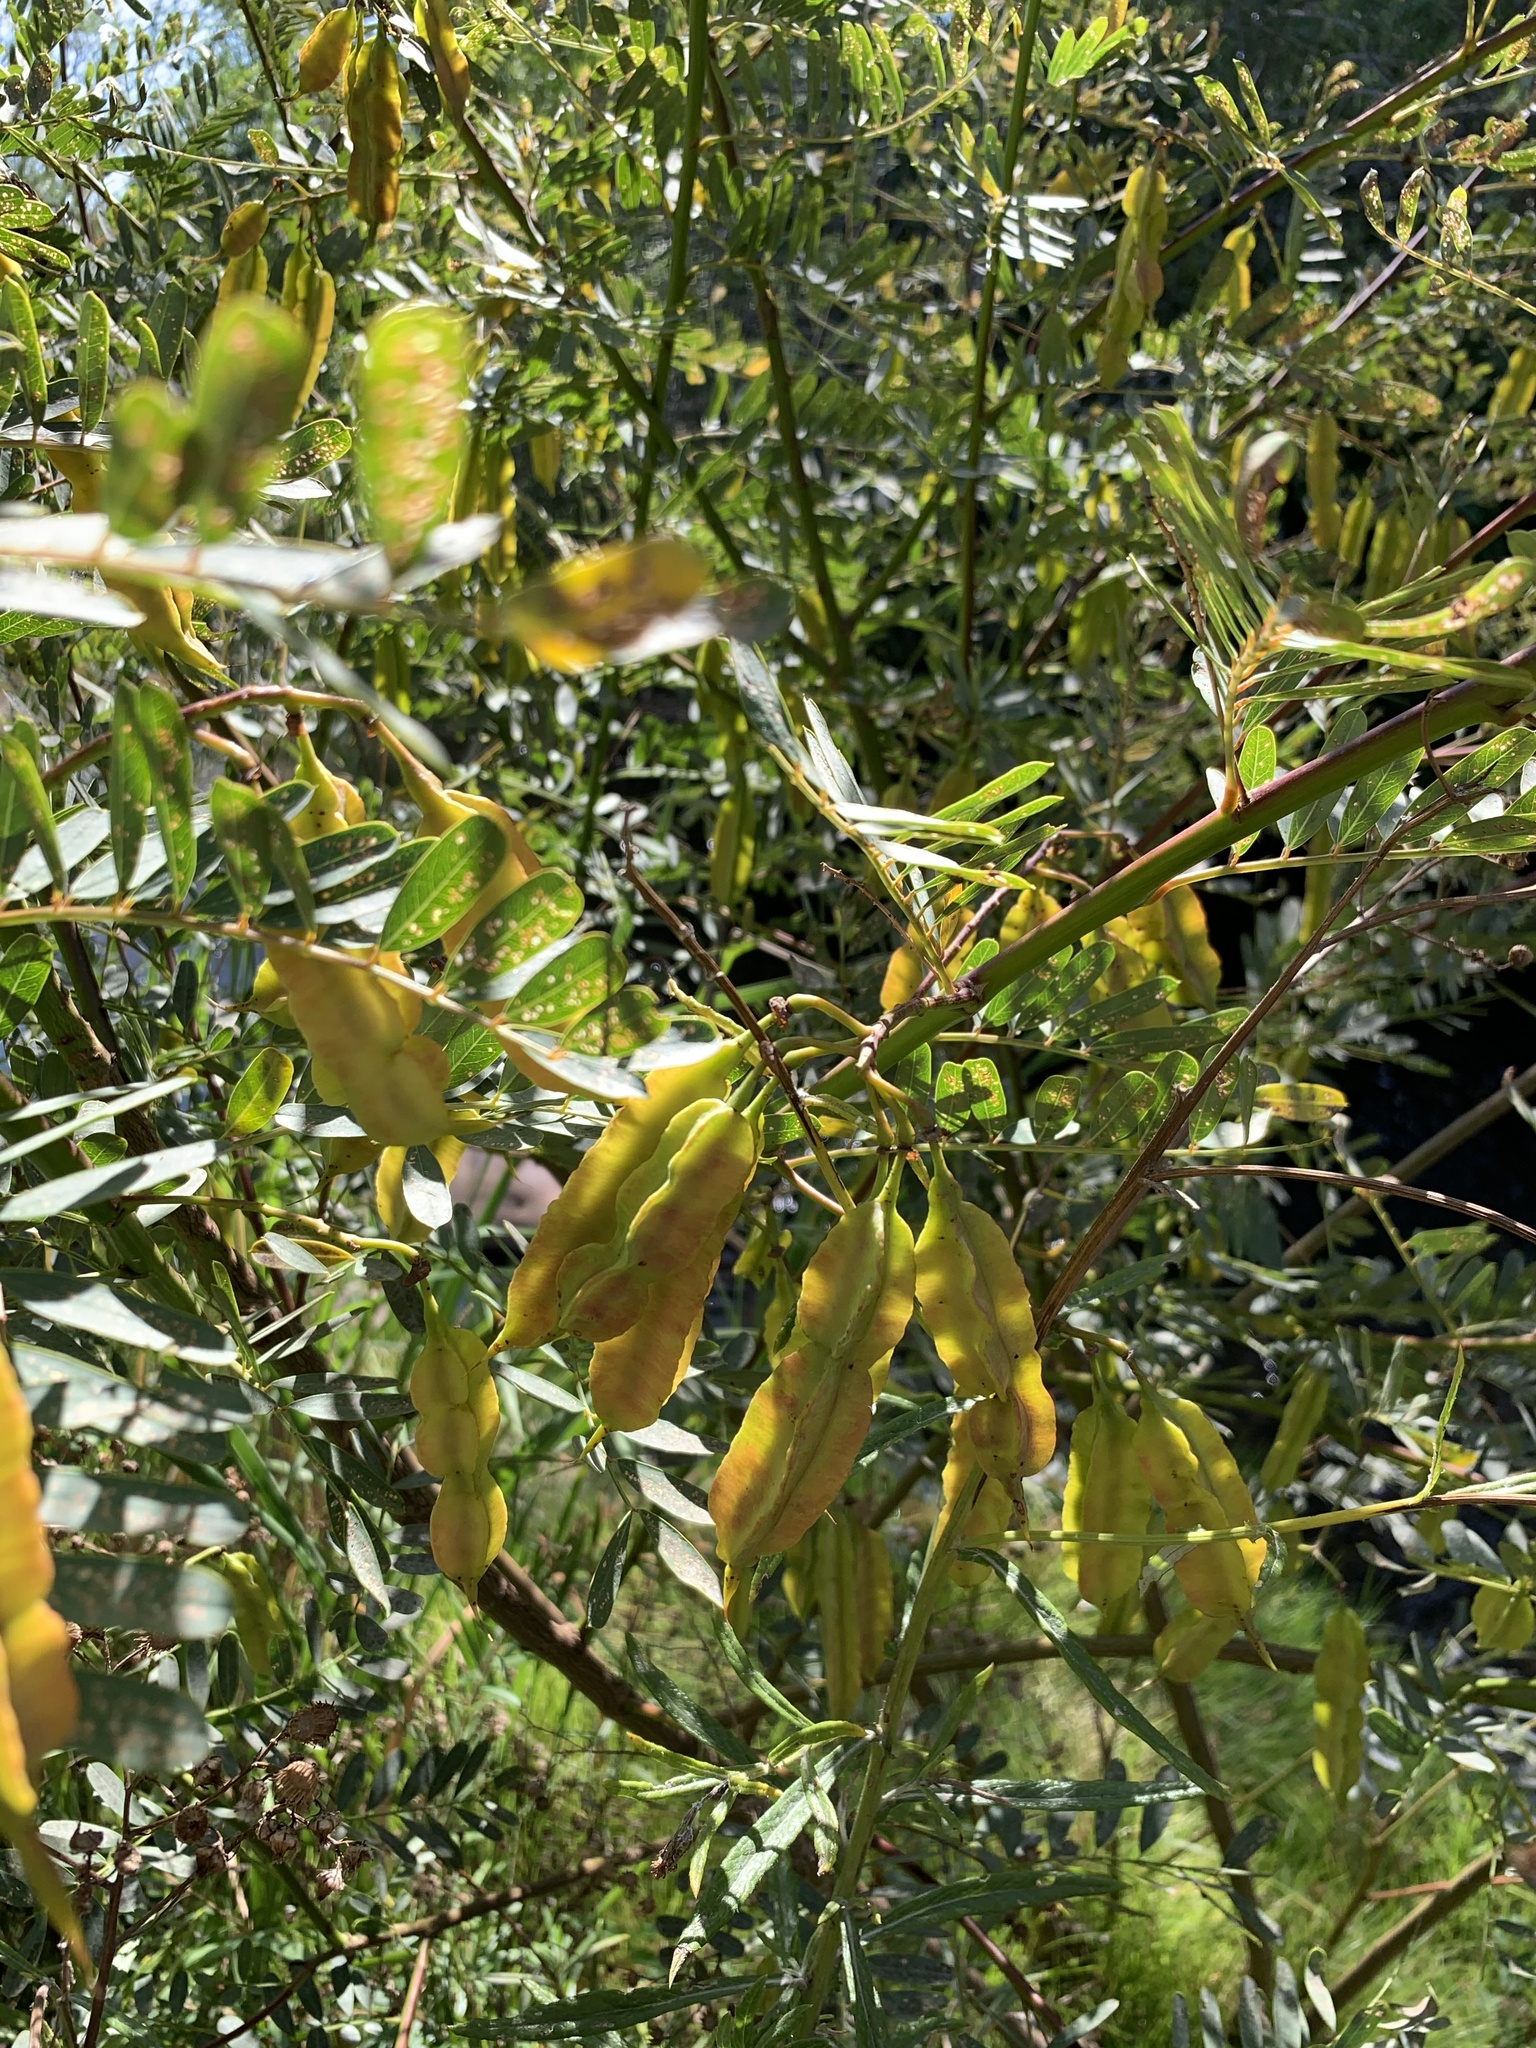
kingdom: Plantae
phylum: Tracheophyta
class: Magnoliopsida
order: Fabales
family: Fabaceae
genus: Sesbania
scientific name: Sesbania punicea
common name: Rattlebox
